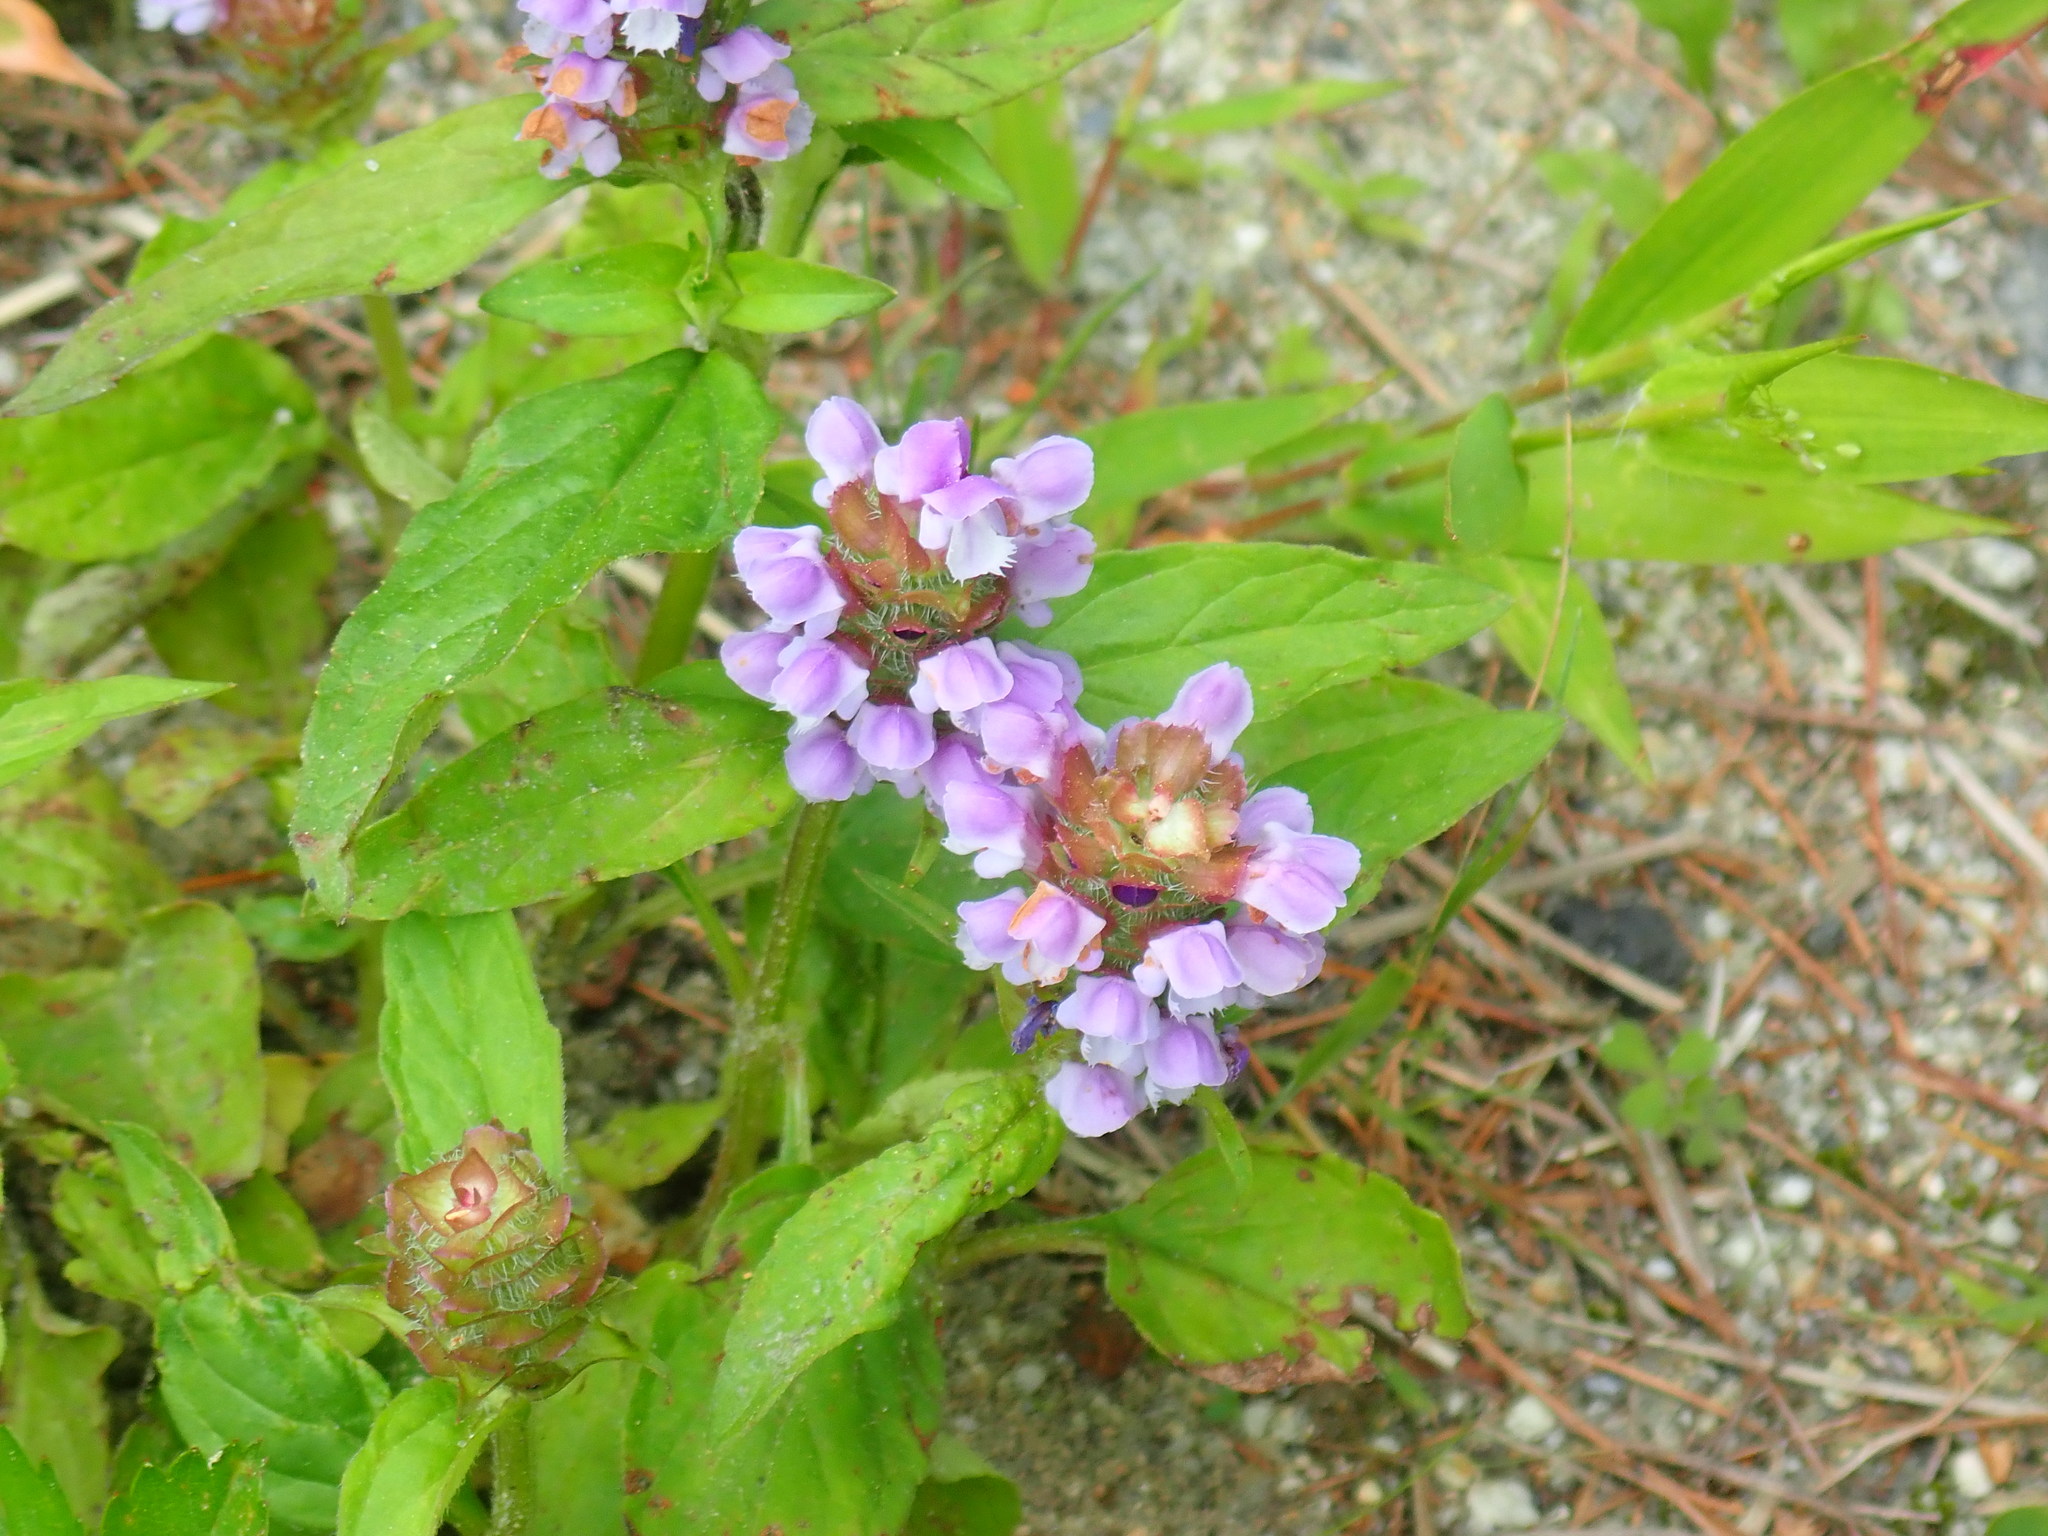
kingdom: Plantae
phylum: Tracheophyta
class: Magnoliopsida
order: Lamiales
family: Lamiaceae
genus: Prunella
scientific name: Prunella vulgaris
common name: Heal-all
